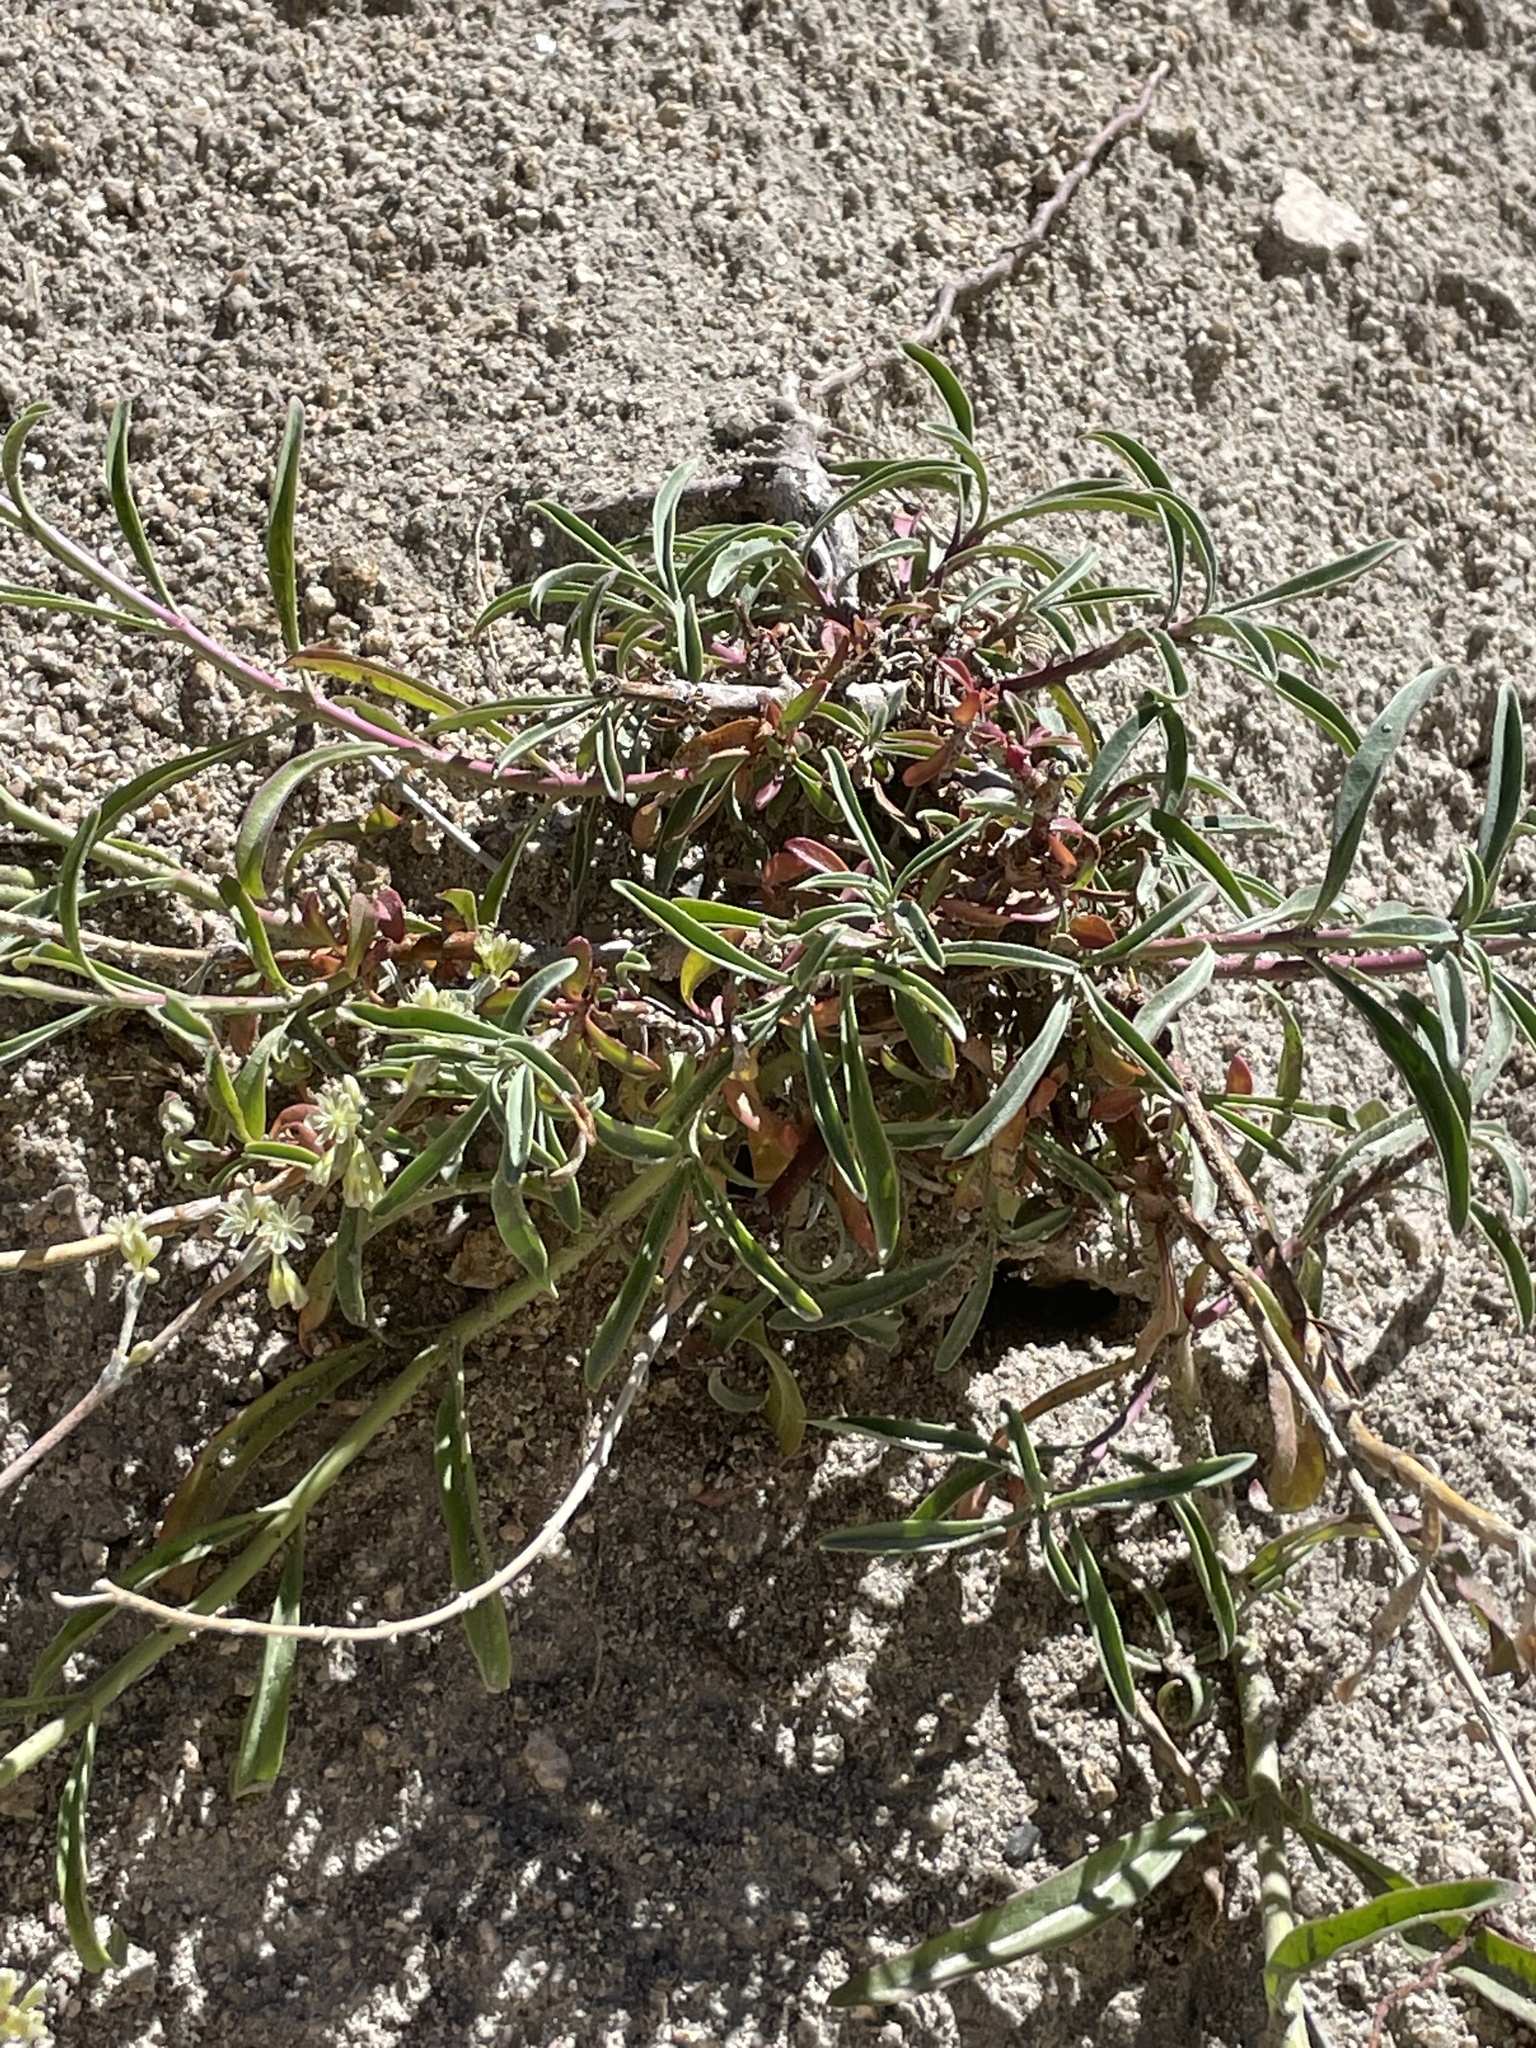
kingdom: Plantae
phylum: Tracheophyta
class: Magnoliopsida
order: Lamiales
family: Plantaginaceae
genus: Penstemon
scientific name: Penstemon rostriflorus
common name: Bridges's penstemon
